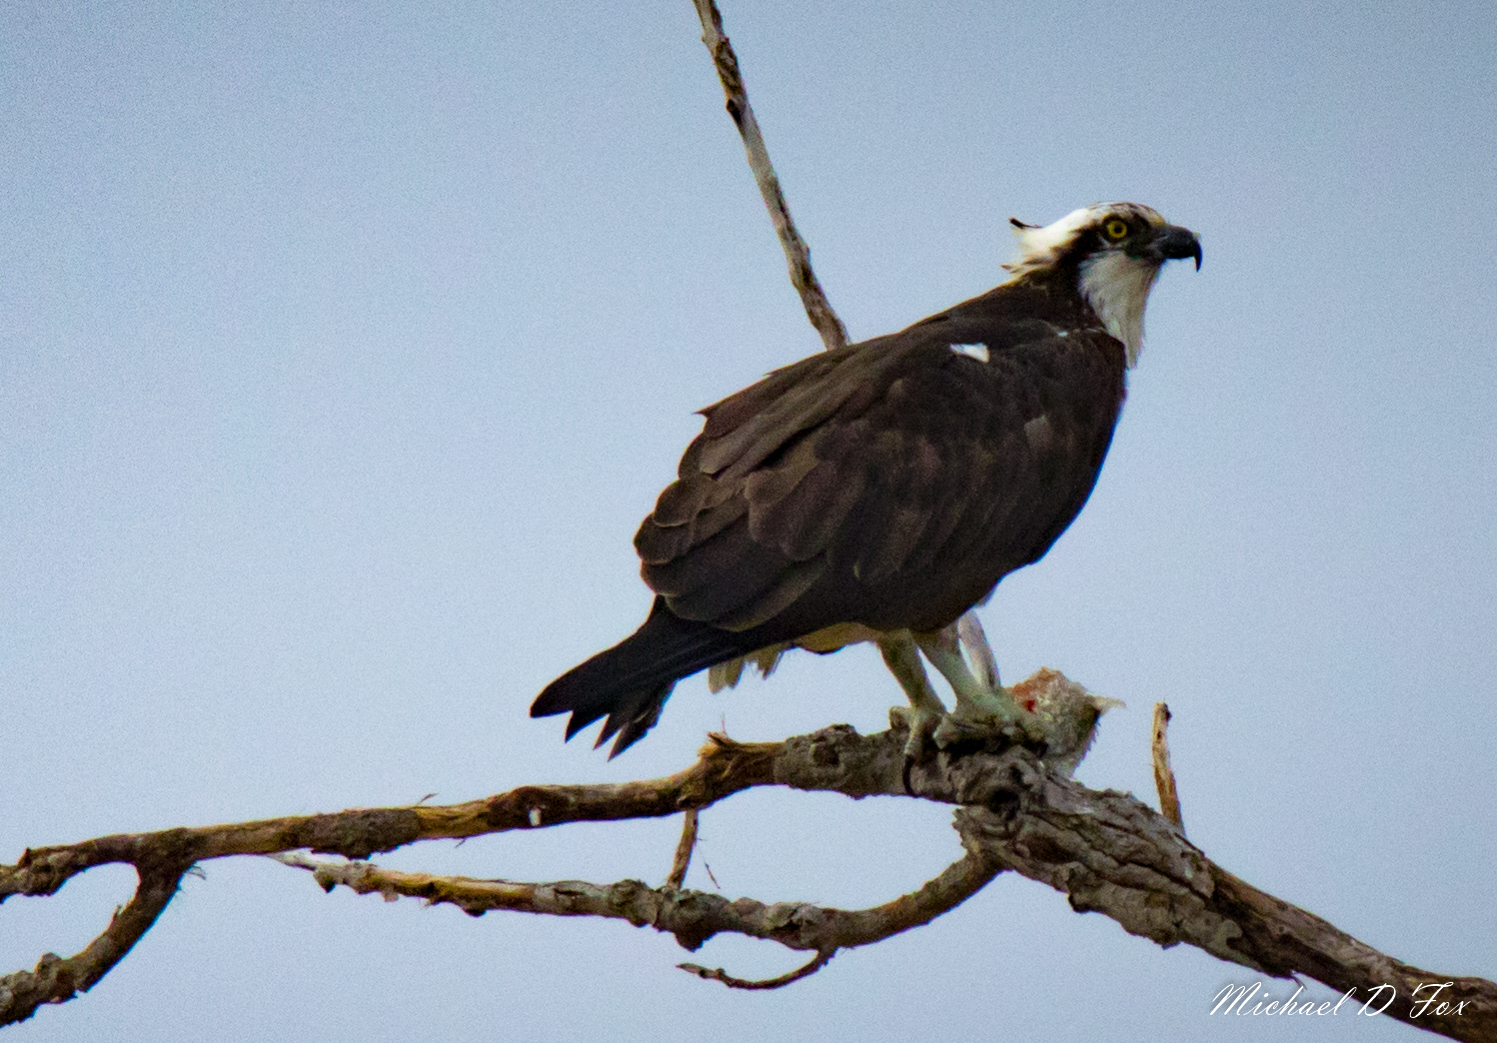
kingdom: Animalia
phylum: Chordata
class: Aves
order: Accipitriformes
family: Pandionidae
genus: Pandion
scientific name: Pandion haliaetus
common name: Osprey
